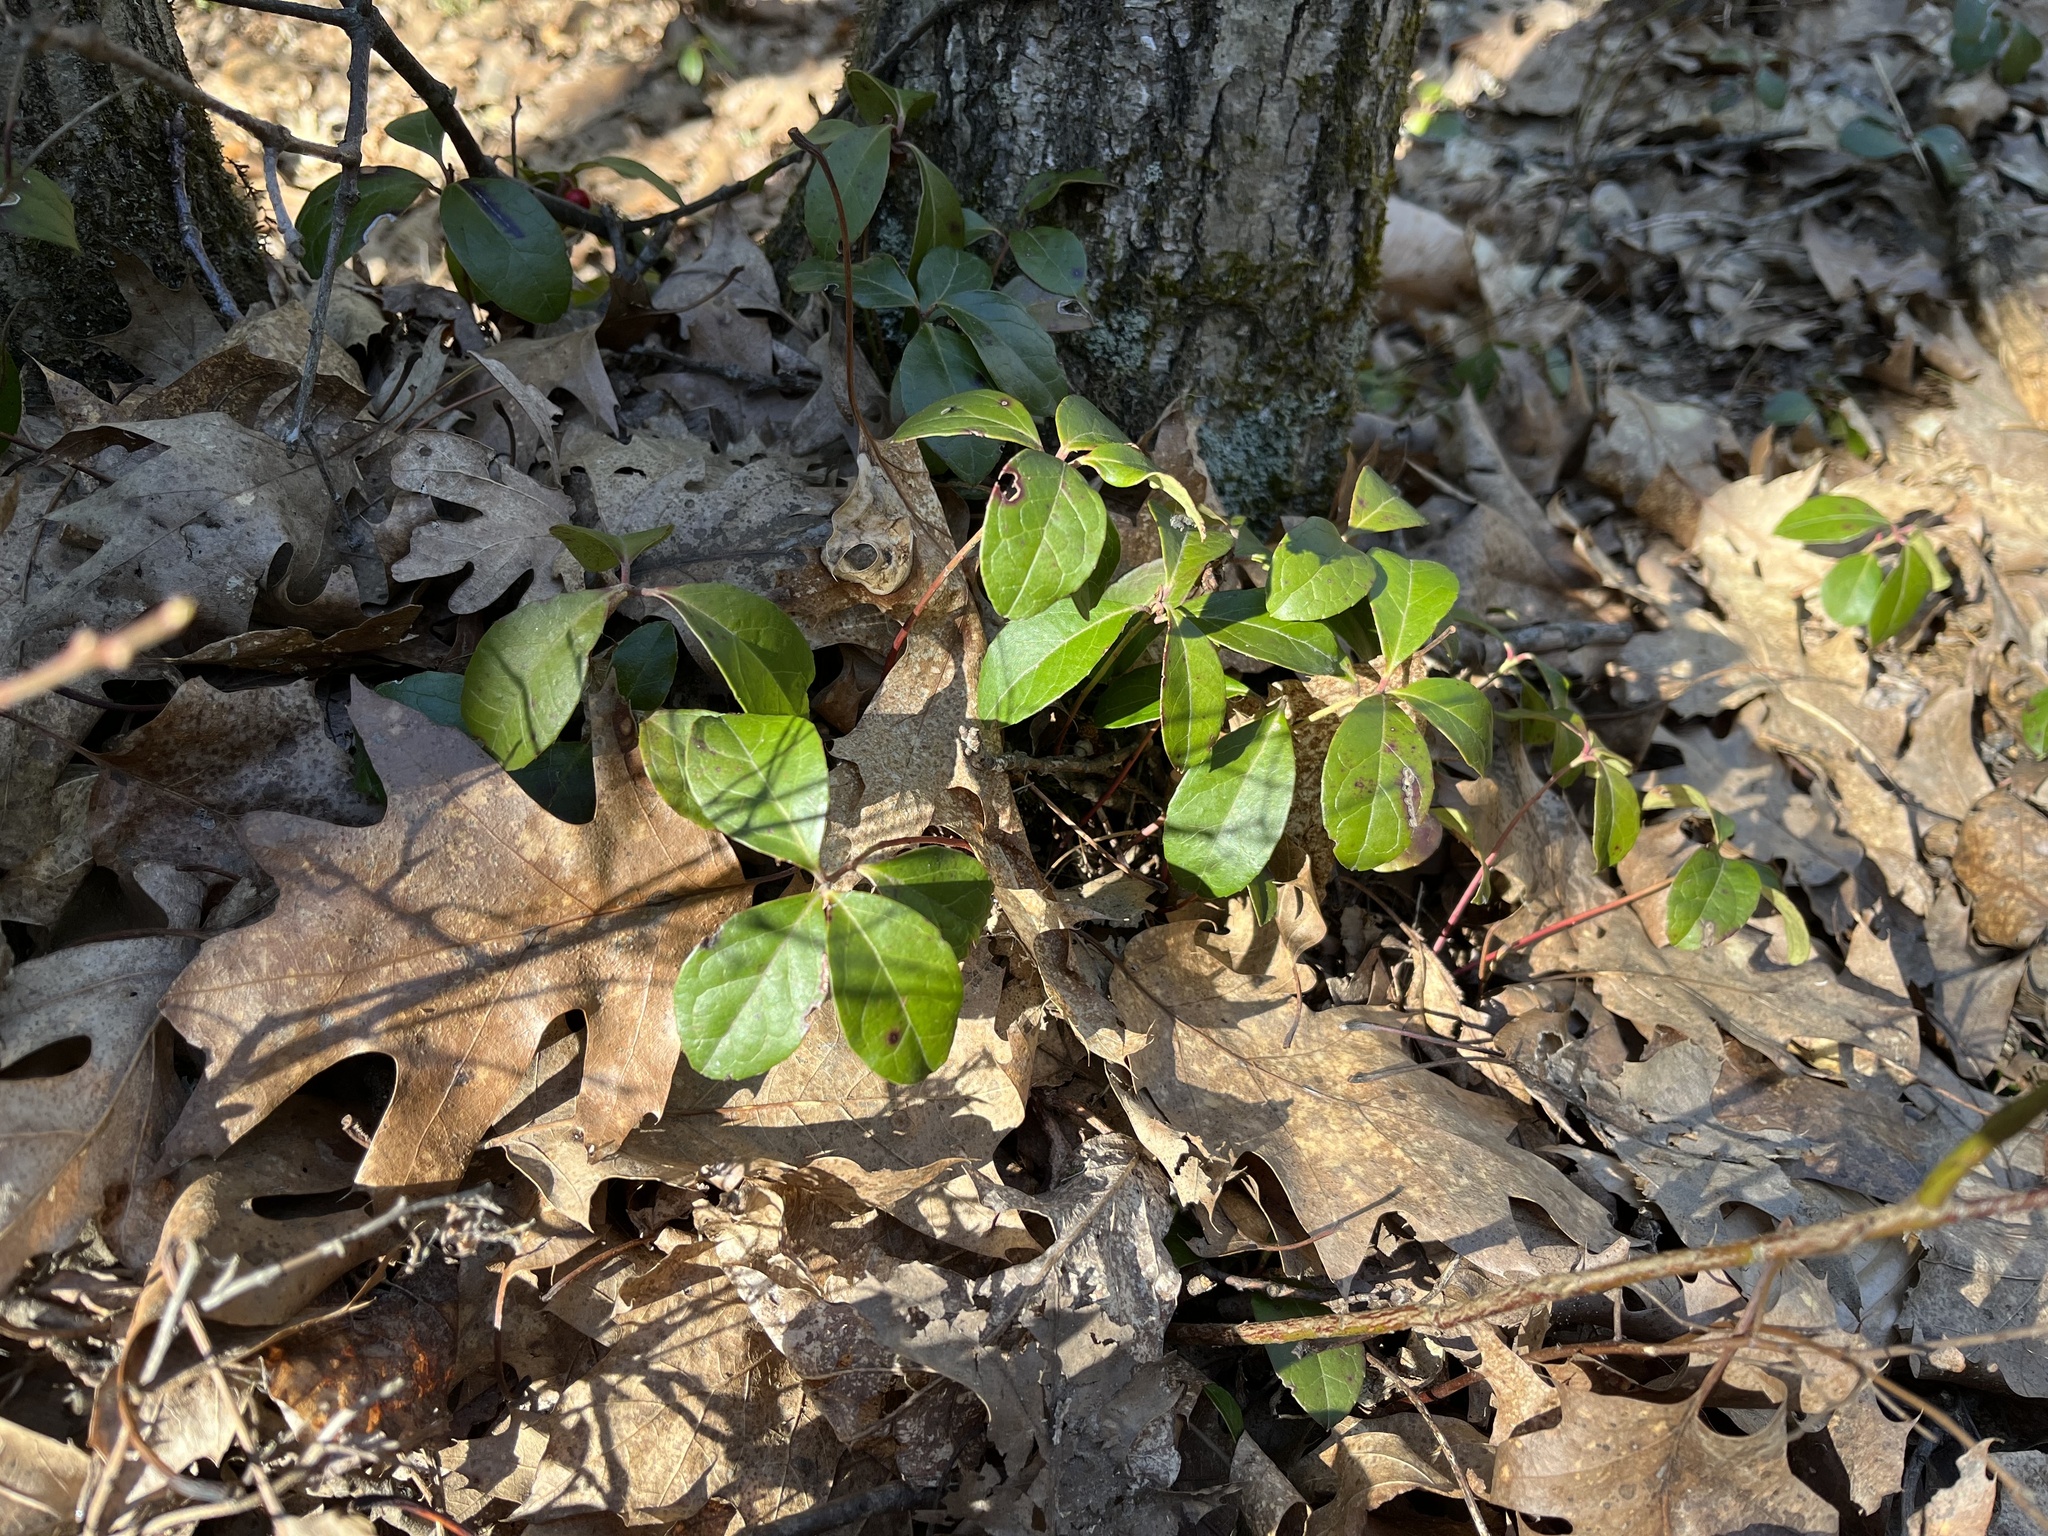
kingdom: Plantae
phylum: Tracheophyta
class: Magnoliopsida
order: Ericales
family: Ericaceae
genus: Gaultheria
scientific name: Gaultheria procumbens
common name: Checkerberry
